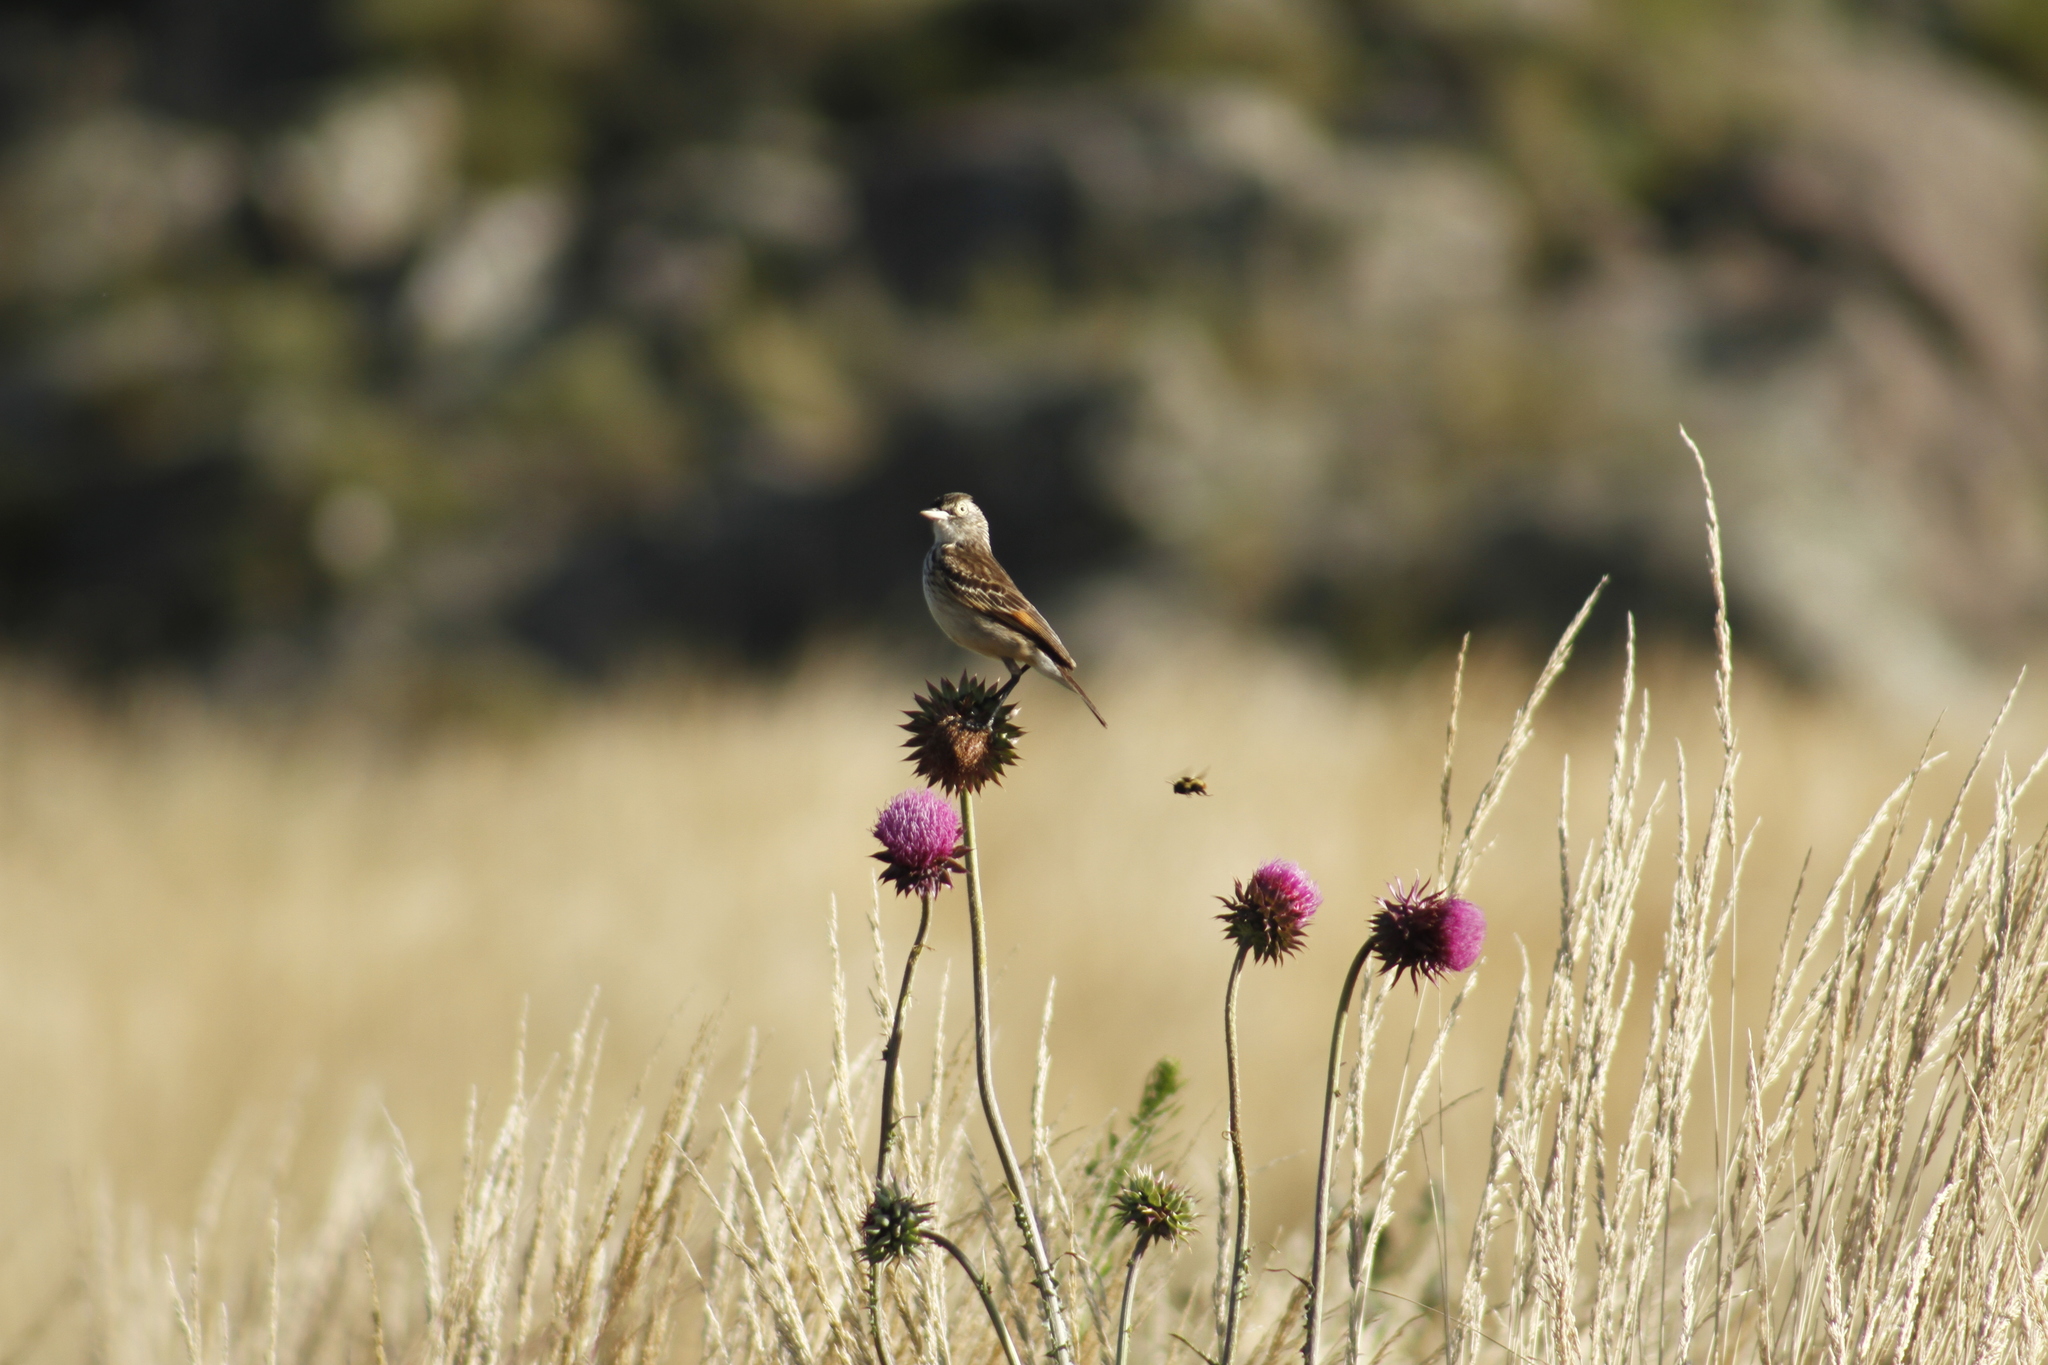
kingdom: Animalia
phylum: Chordata
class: Aves
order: Passeriformes
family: Tyrannidae
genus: Hymenops
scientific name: Hymenops perspicillatus
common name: Spectacled tyrant
